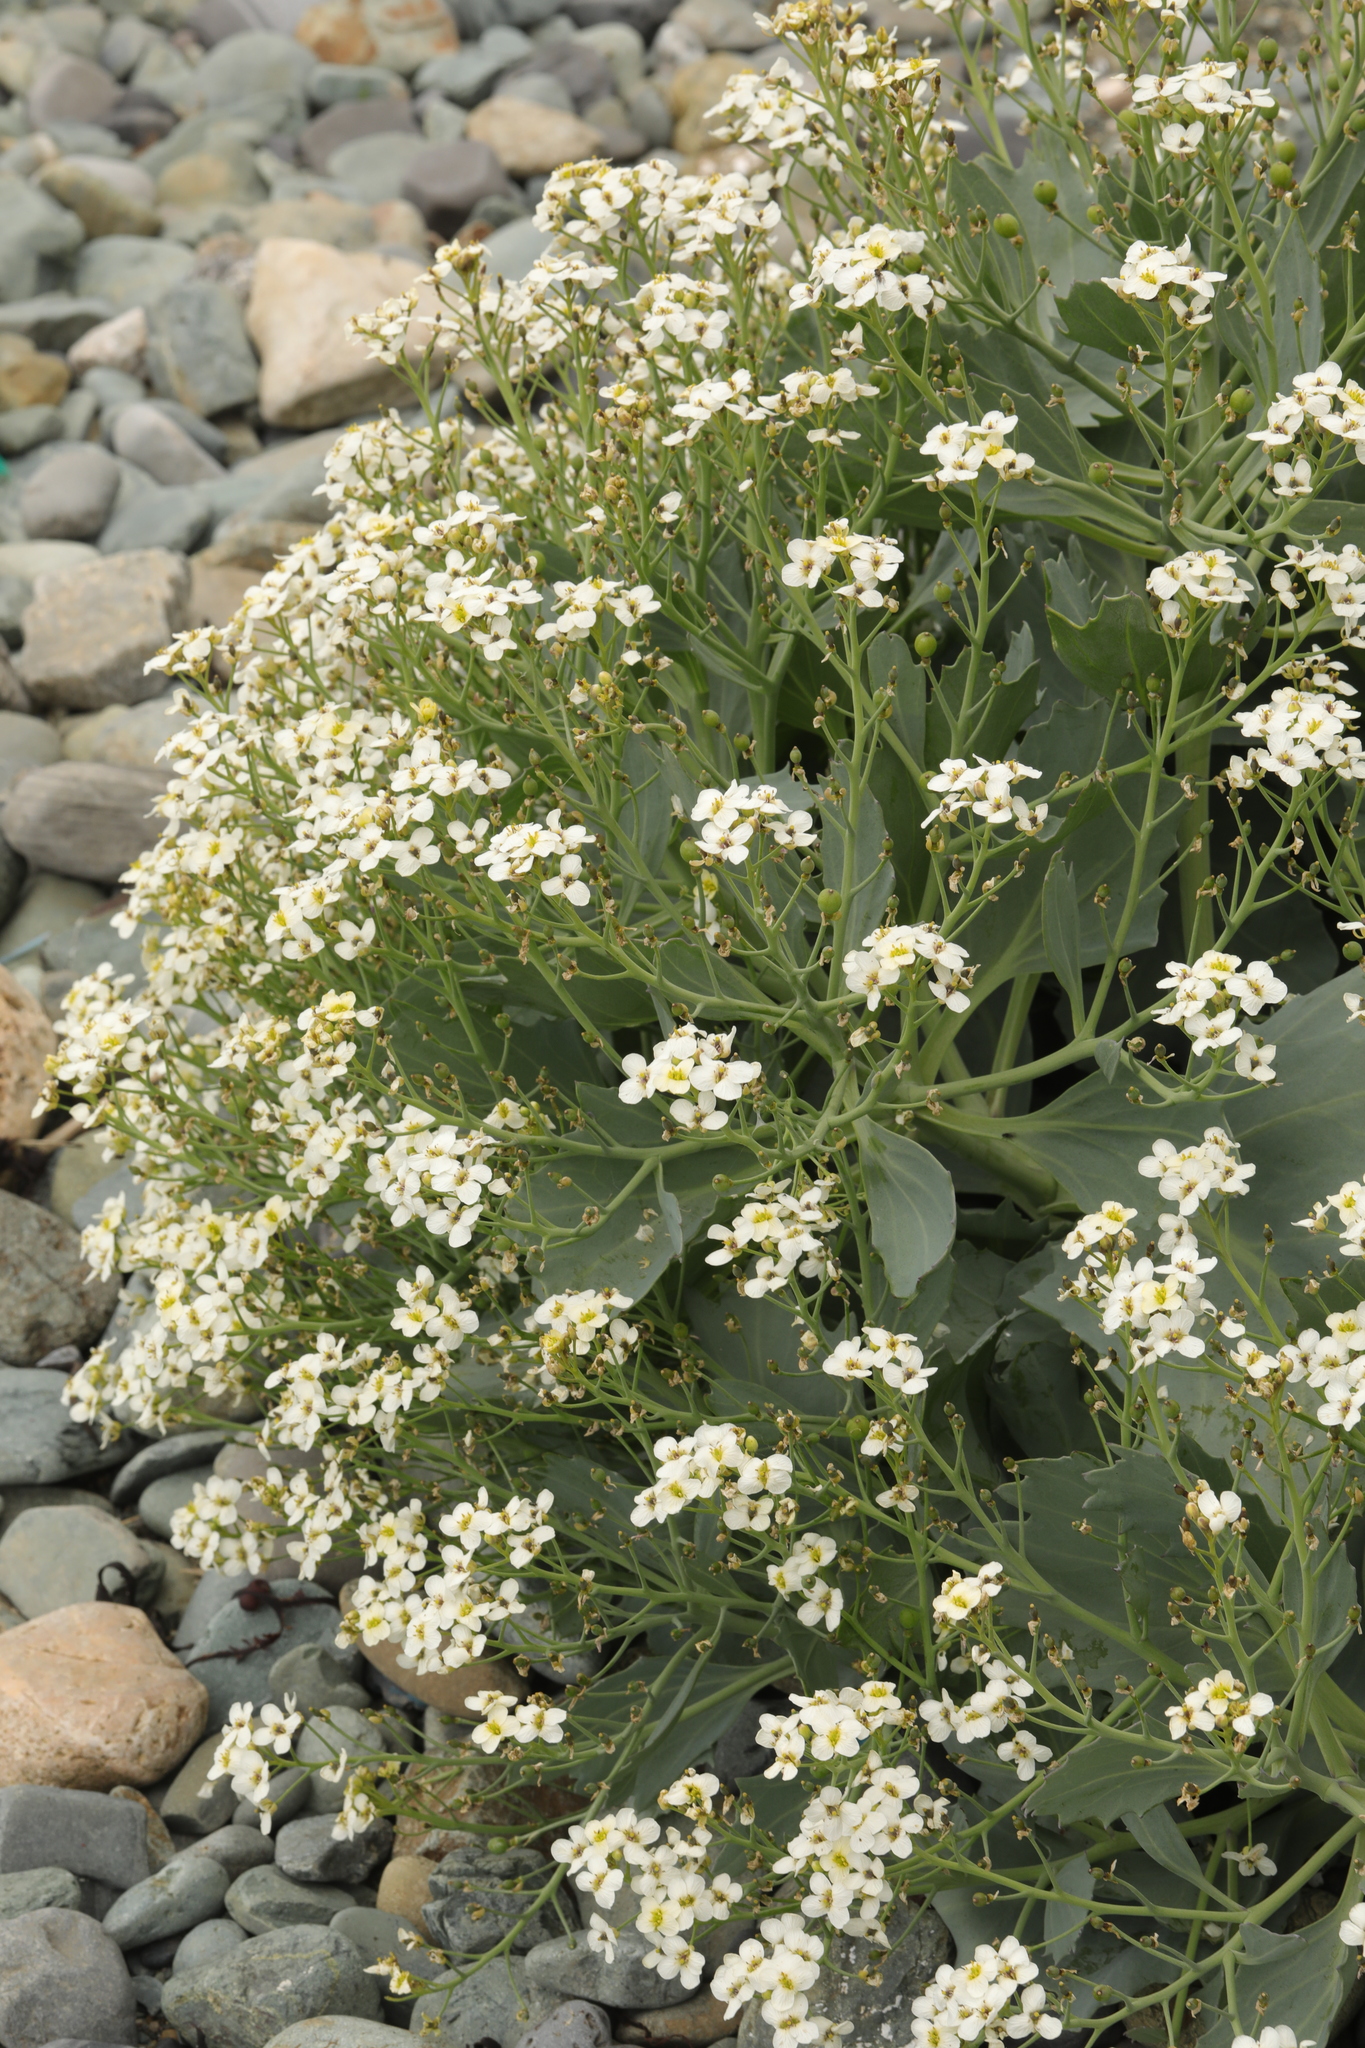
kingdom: Plantae
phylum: Tracheophyta
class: Magnoliopsida
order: Brassicales
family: Brassicaceae
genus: Crambe
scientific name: Crambe maritima
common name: Sea-kale
